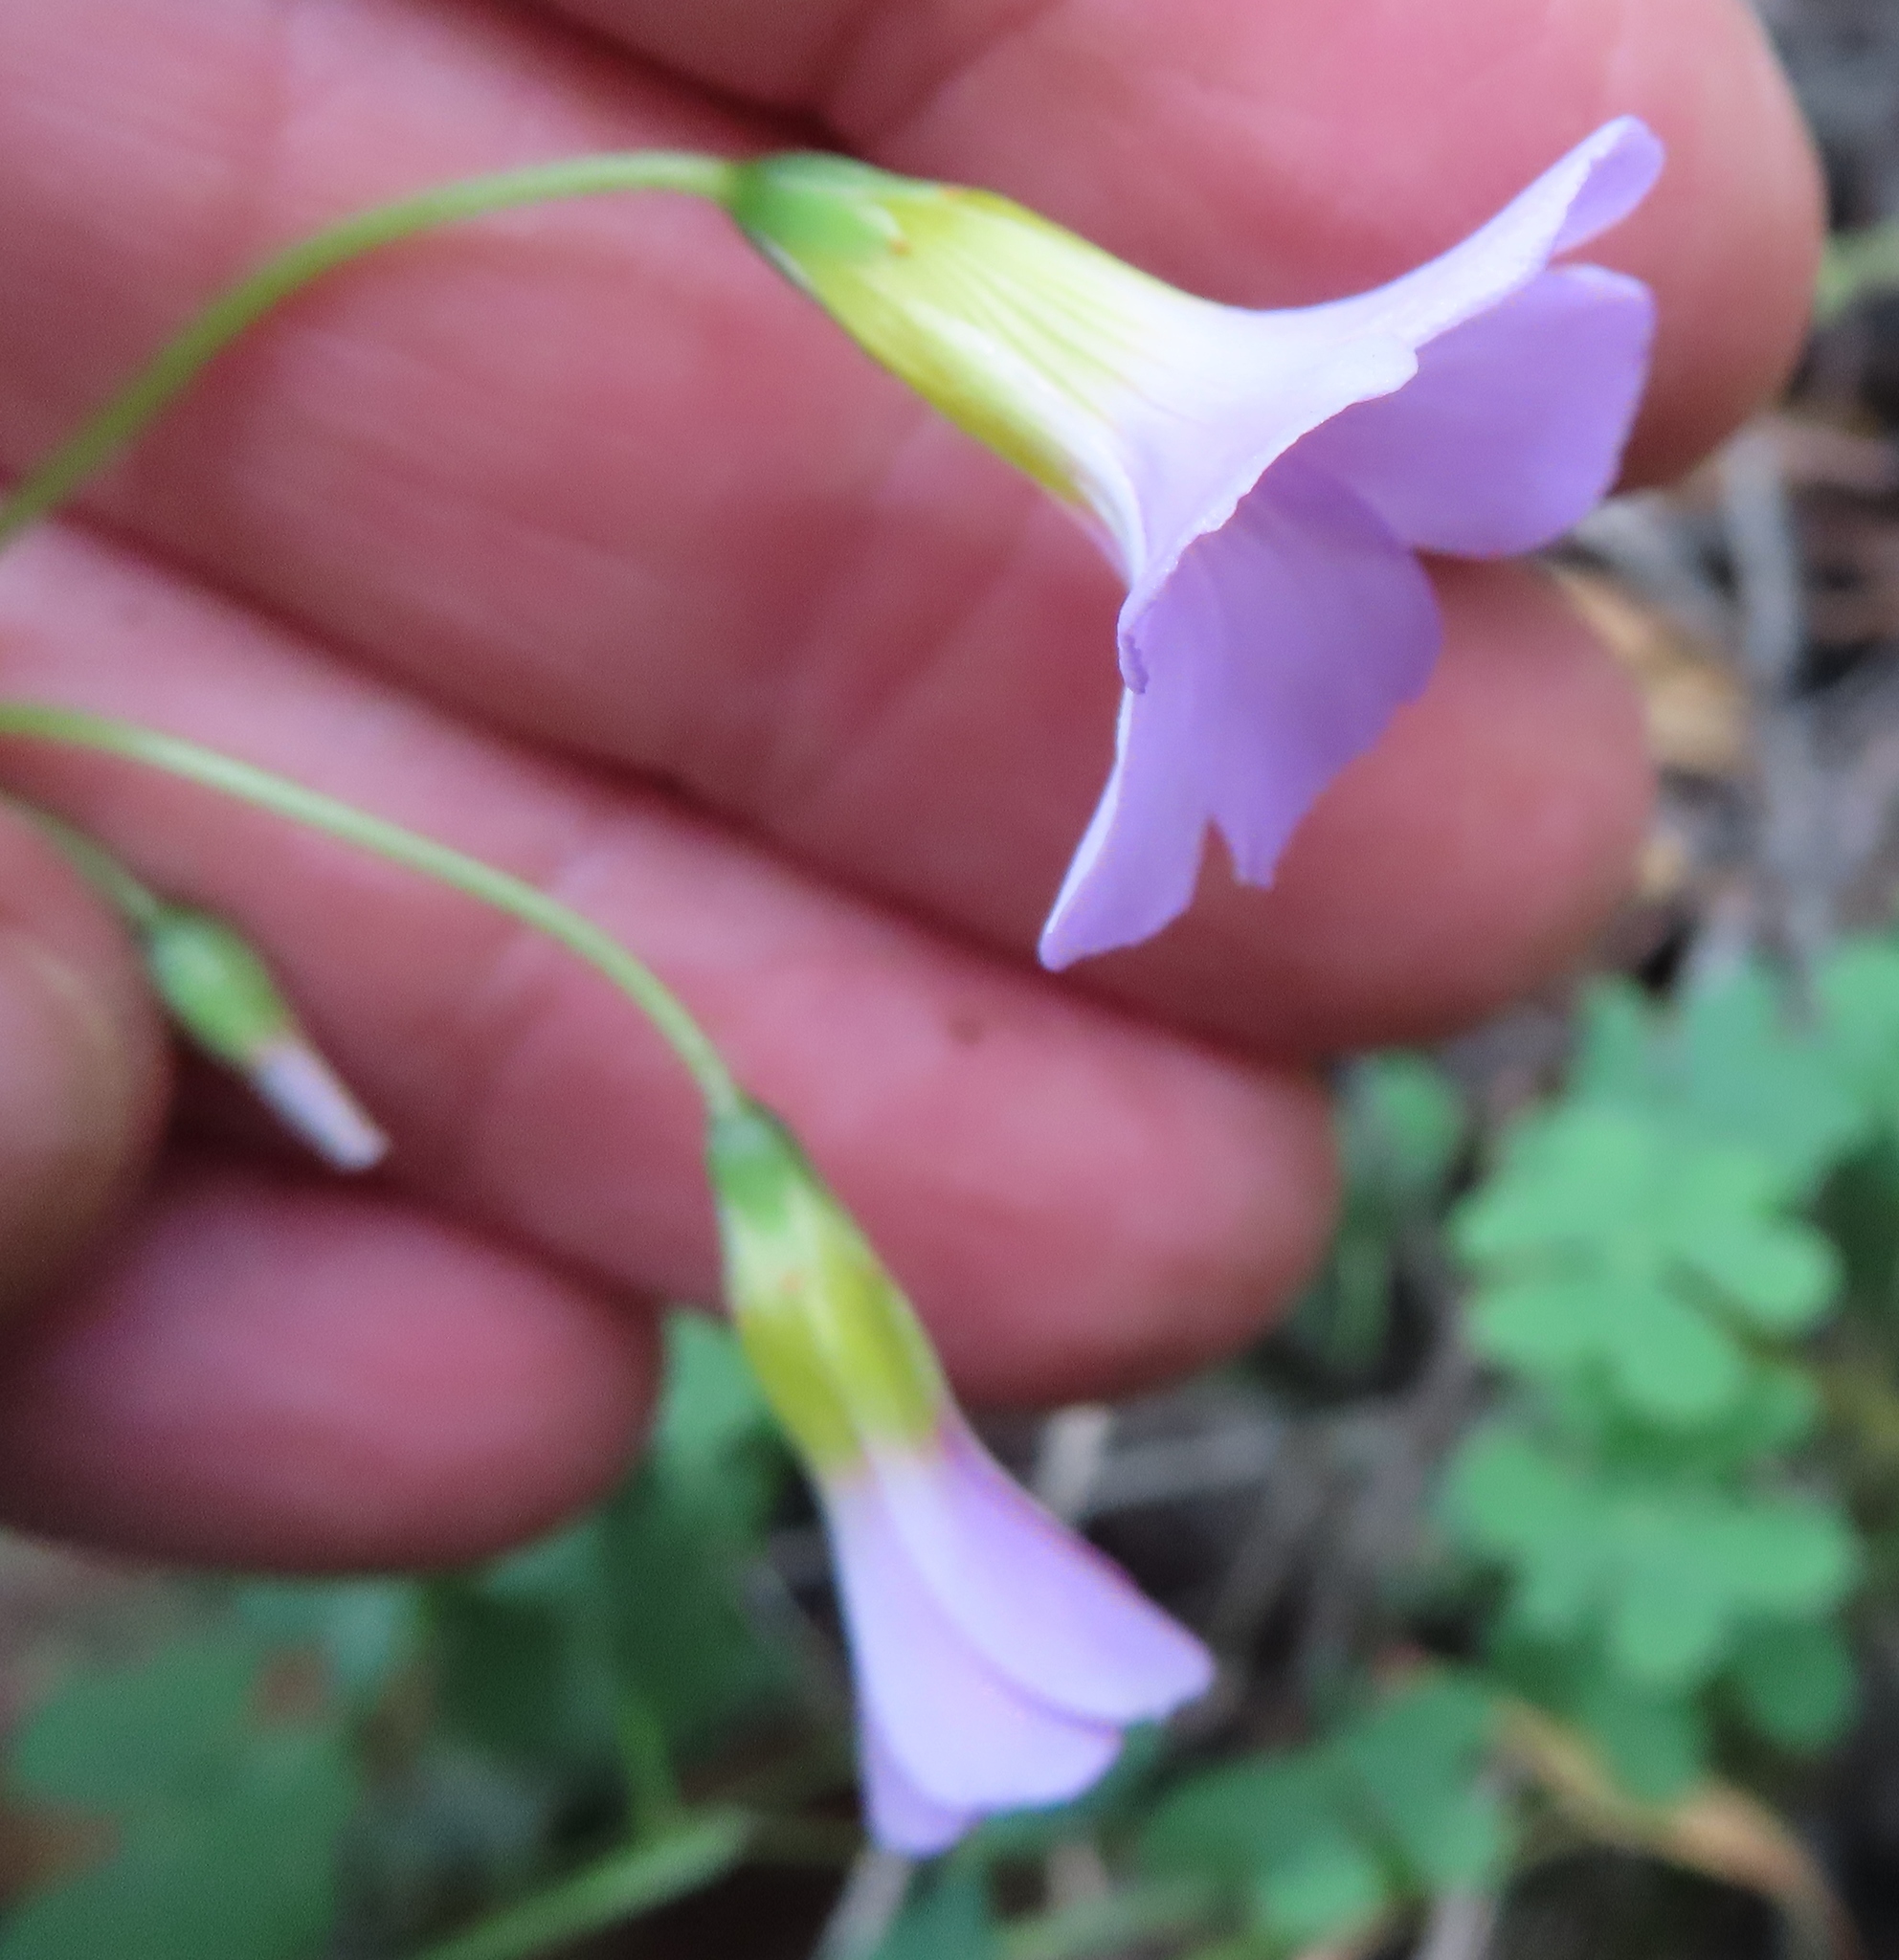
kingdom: Plantae
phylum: Tracheophyta
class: Magnoliopsida
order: Oxalidales
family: Oxalidaceae
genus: Oxalis
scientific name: Oxalis caprina
